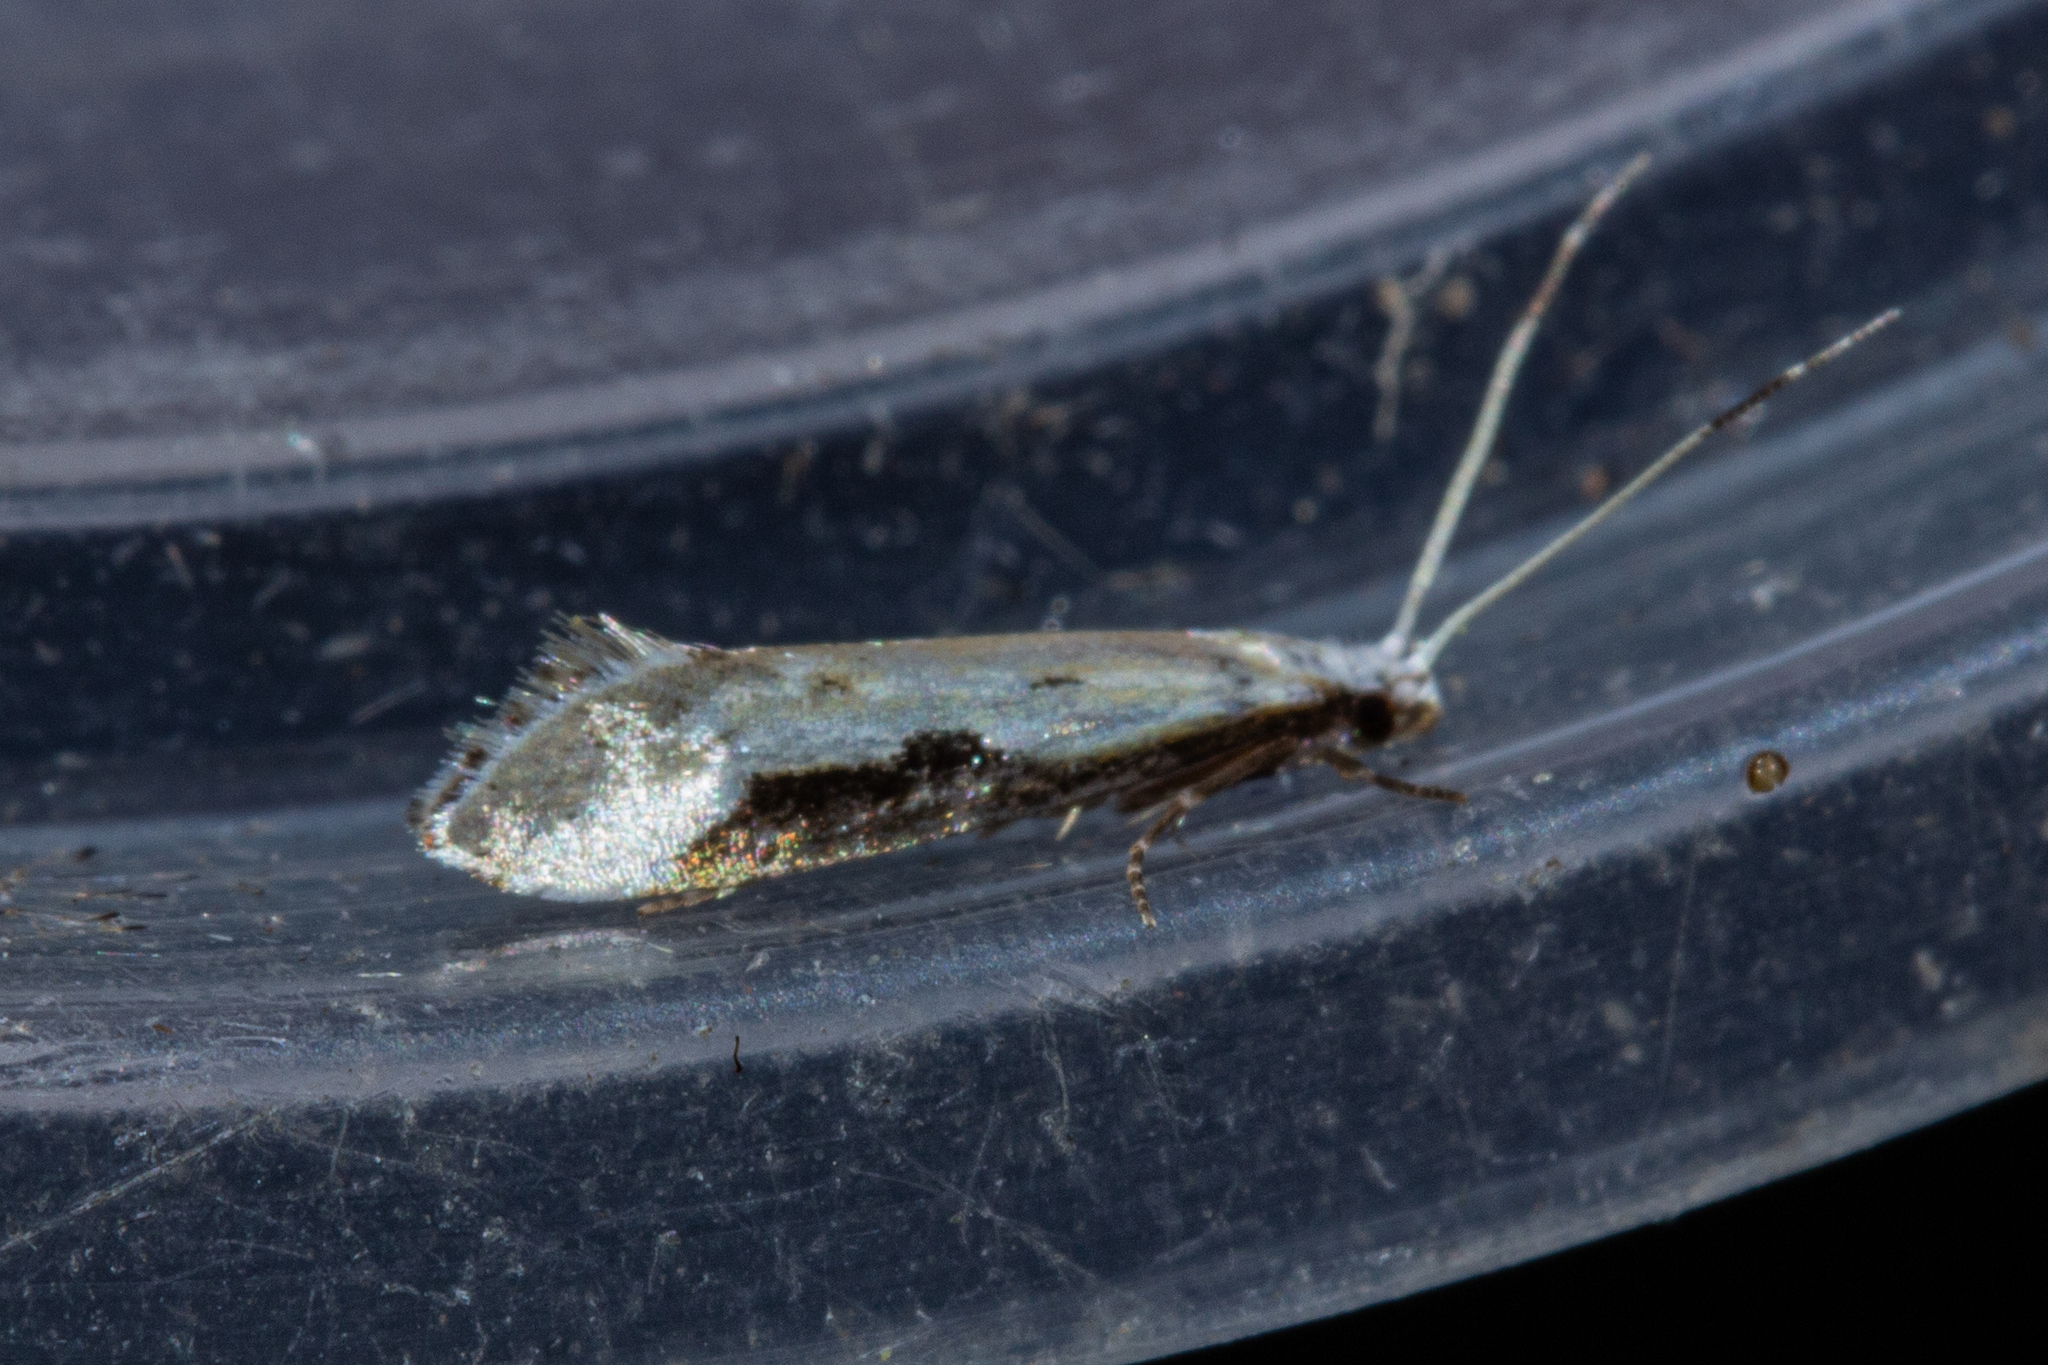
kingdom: Animalia
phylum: Arthropoda
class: Insecta
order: Lepidoptera
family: Tineidae
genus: Sagephora
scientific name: Sagephora phortegella
